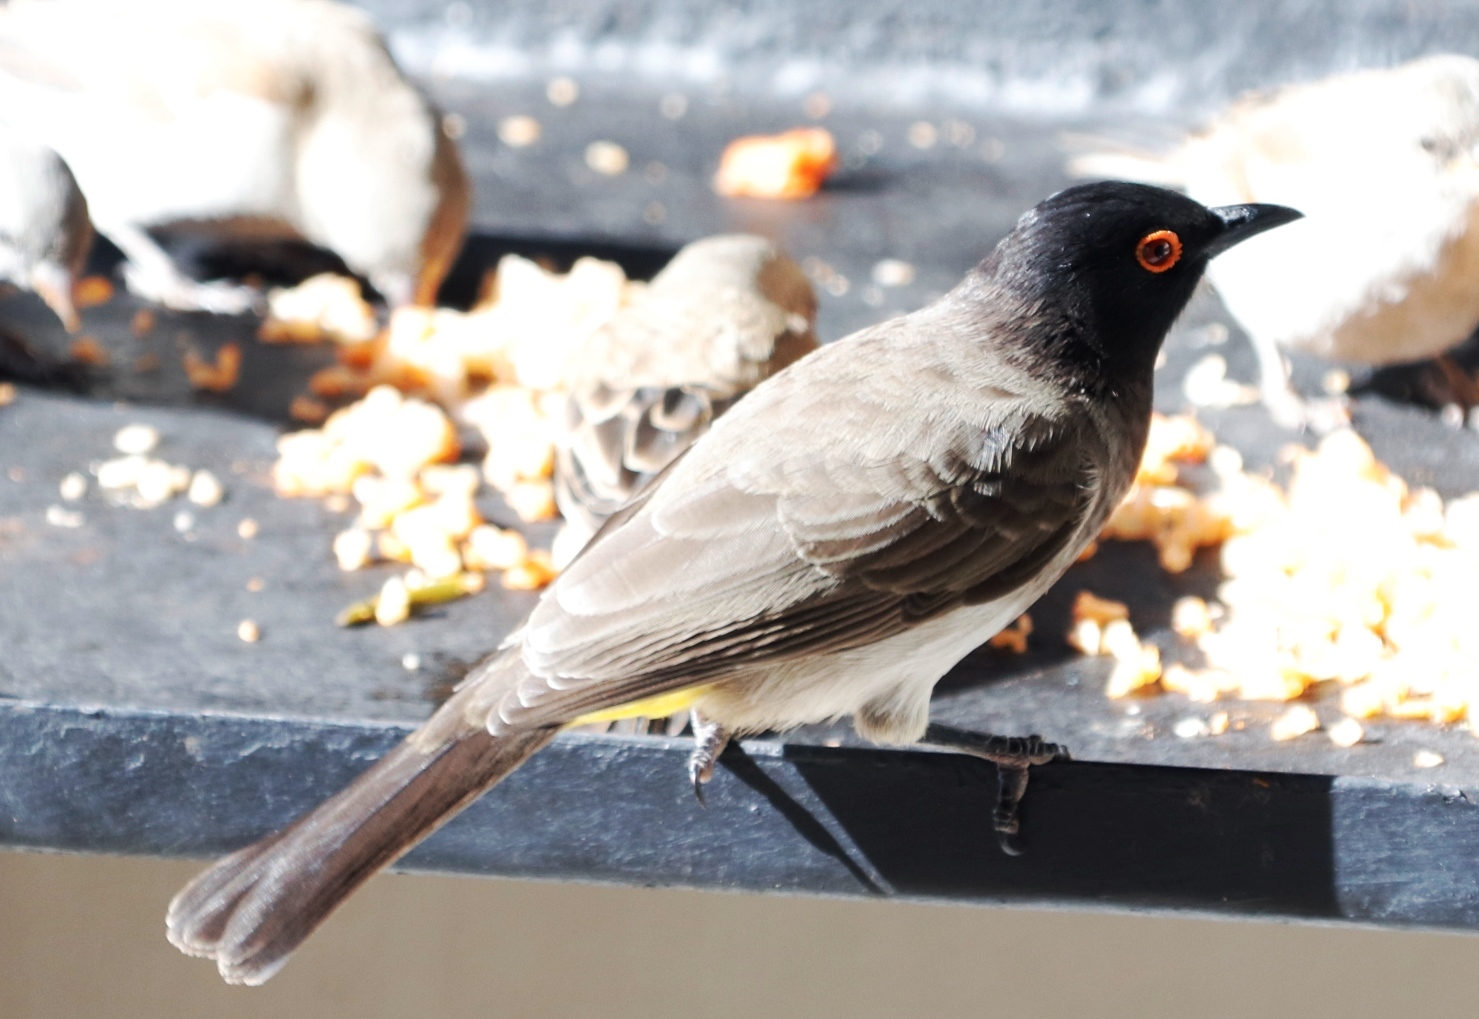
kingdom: Animalia
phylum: Chordata
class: Aves
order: Passeriformes
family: Pycnonotidae
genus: Pycnonotus
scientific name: Pycnonotus nigricans
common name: African red-eyed bulbul
